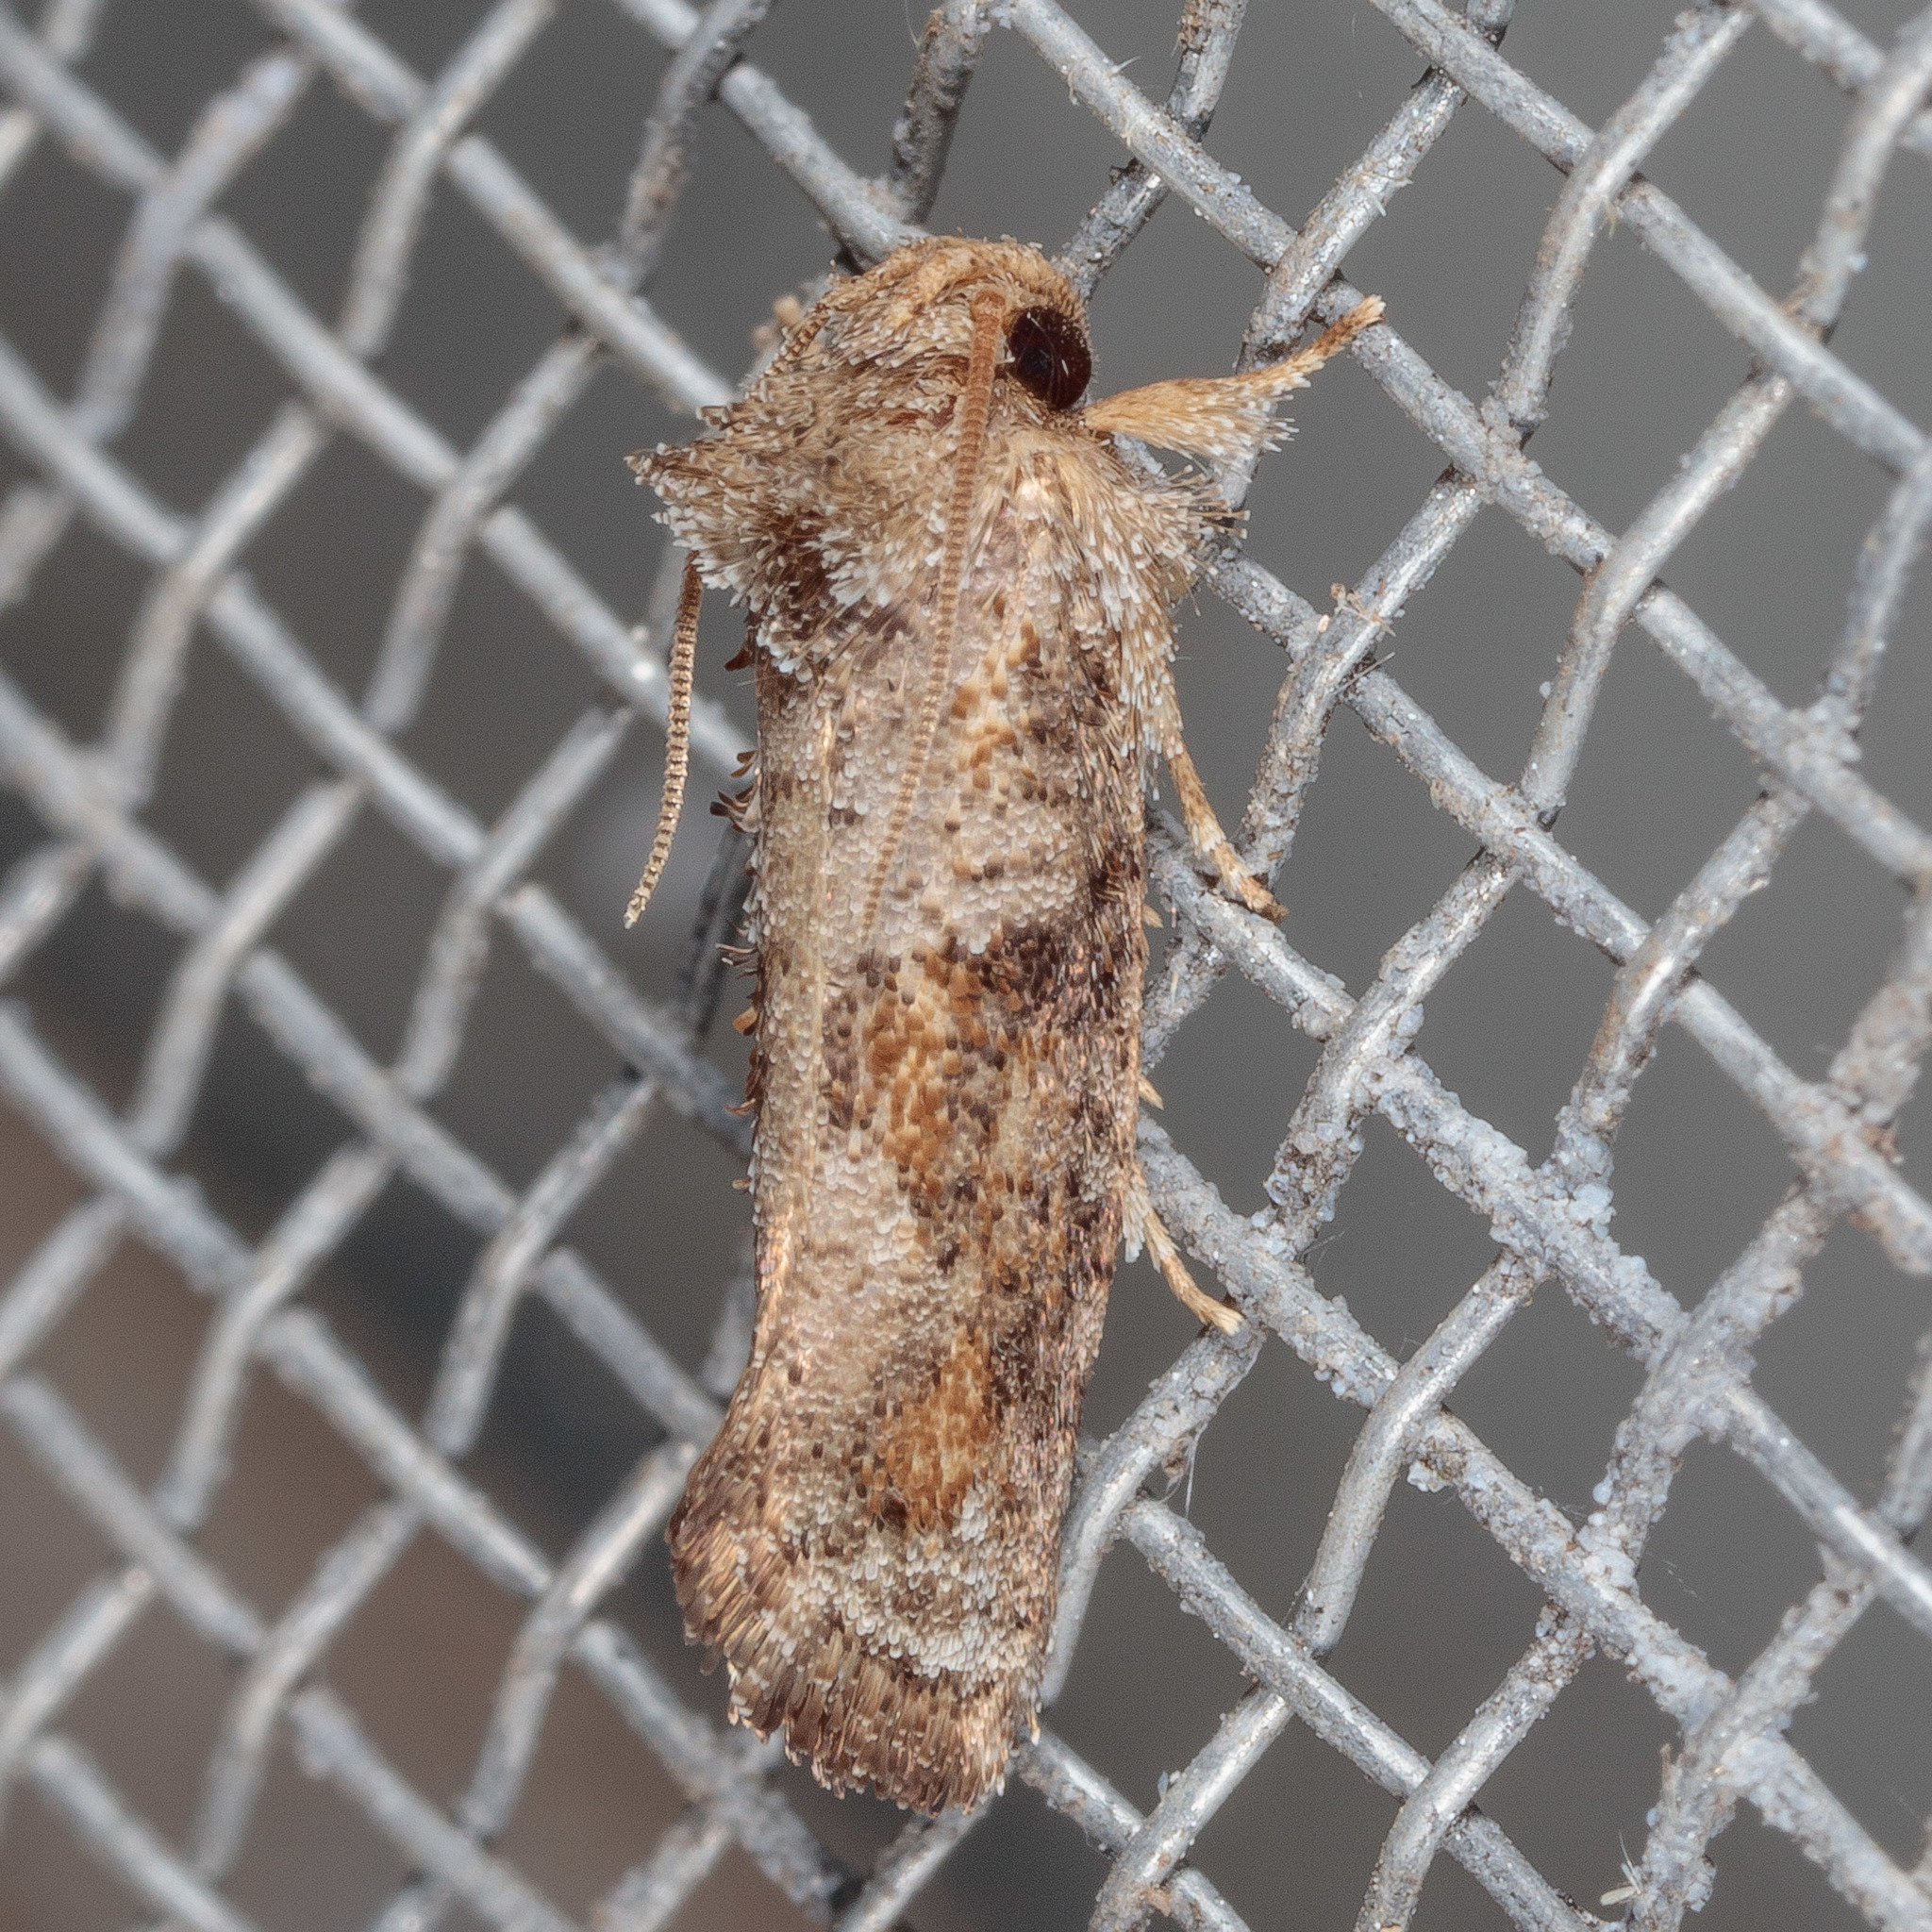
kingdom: Animalia
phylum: Arthropoda
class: Insecta
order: Lepidoptera
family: Tineidae
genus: Acrolophus
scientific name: Acrolophus piger
